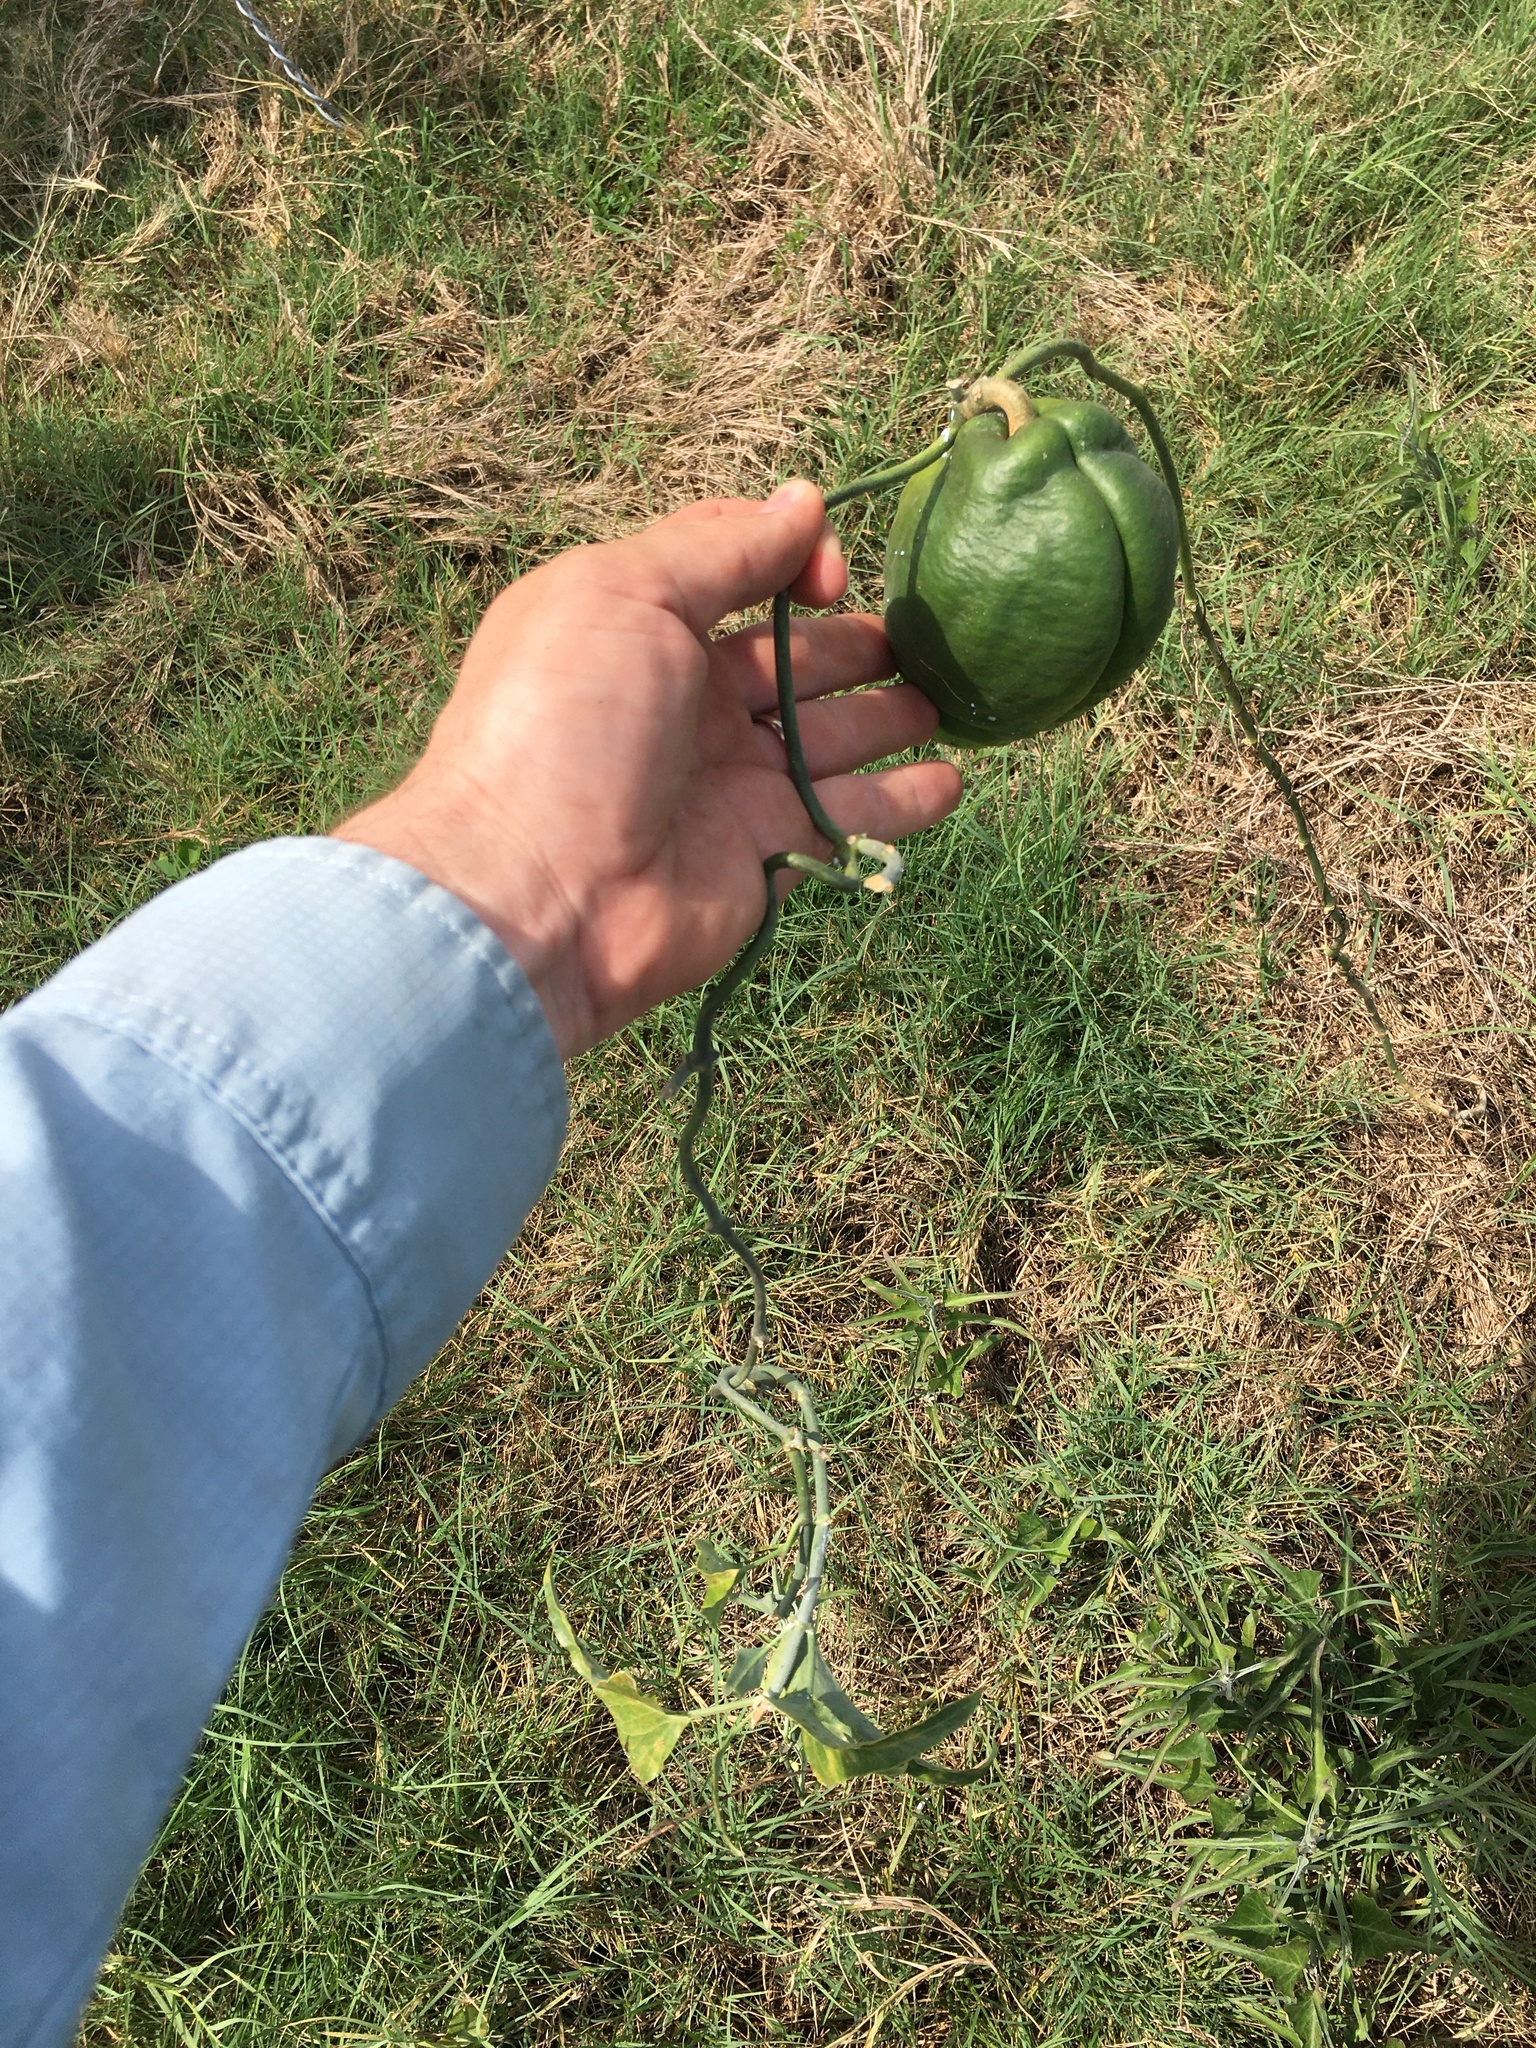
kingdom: Plantae
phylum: Tracheophyta
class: Magnoliopsida
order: Gentianales
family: Apocynaceae
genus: Araujia
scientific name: Araujia odorata
